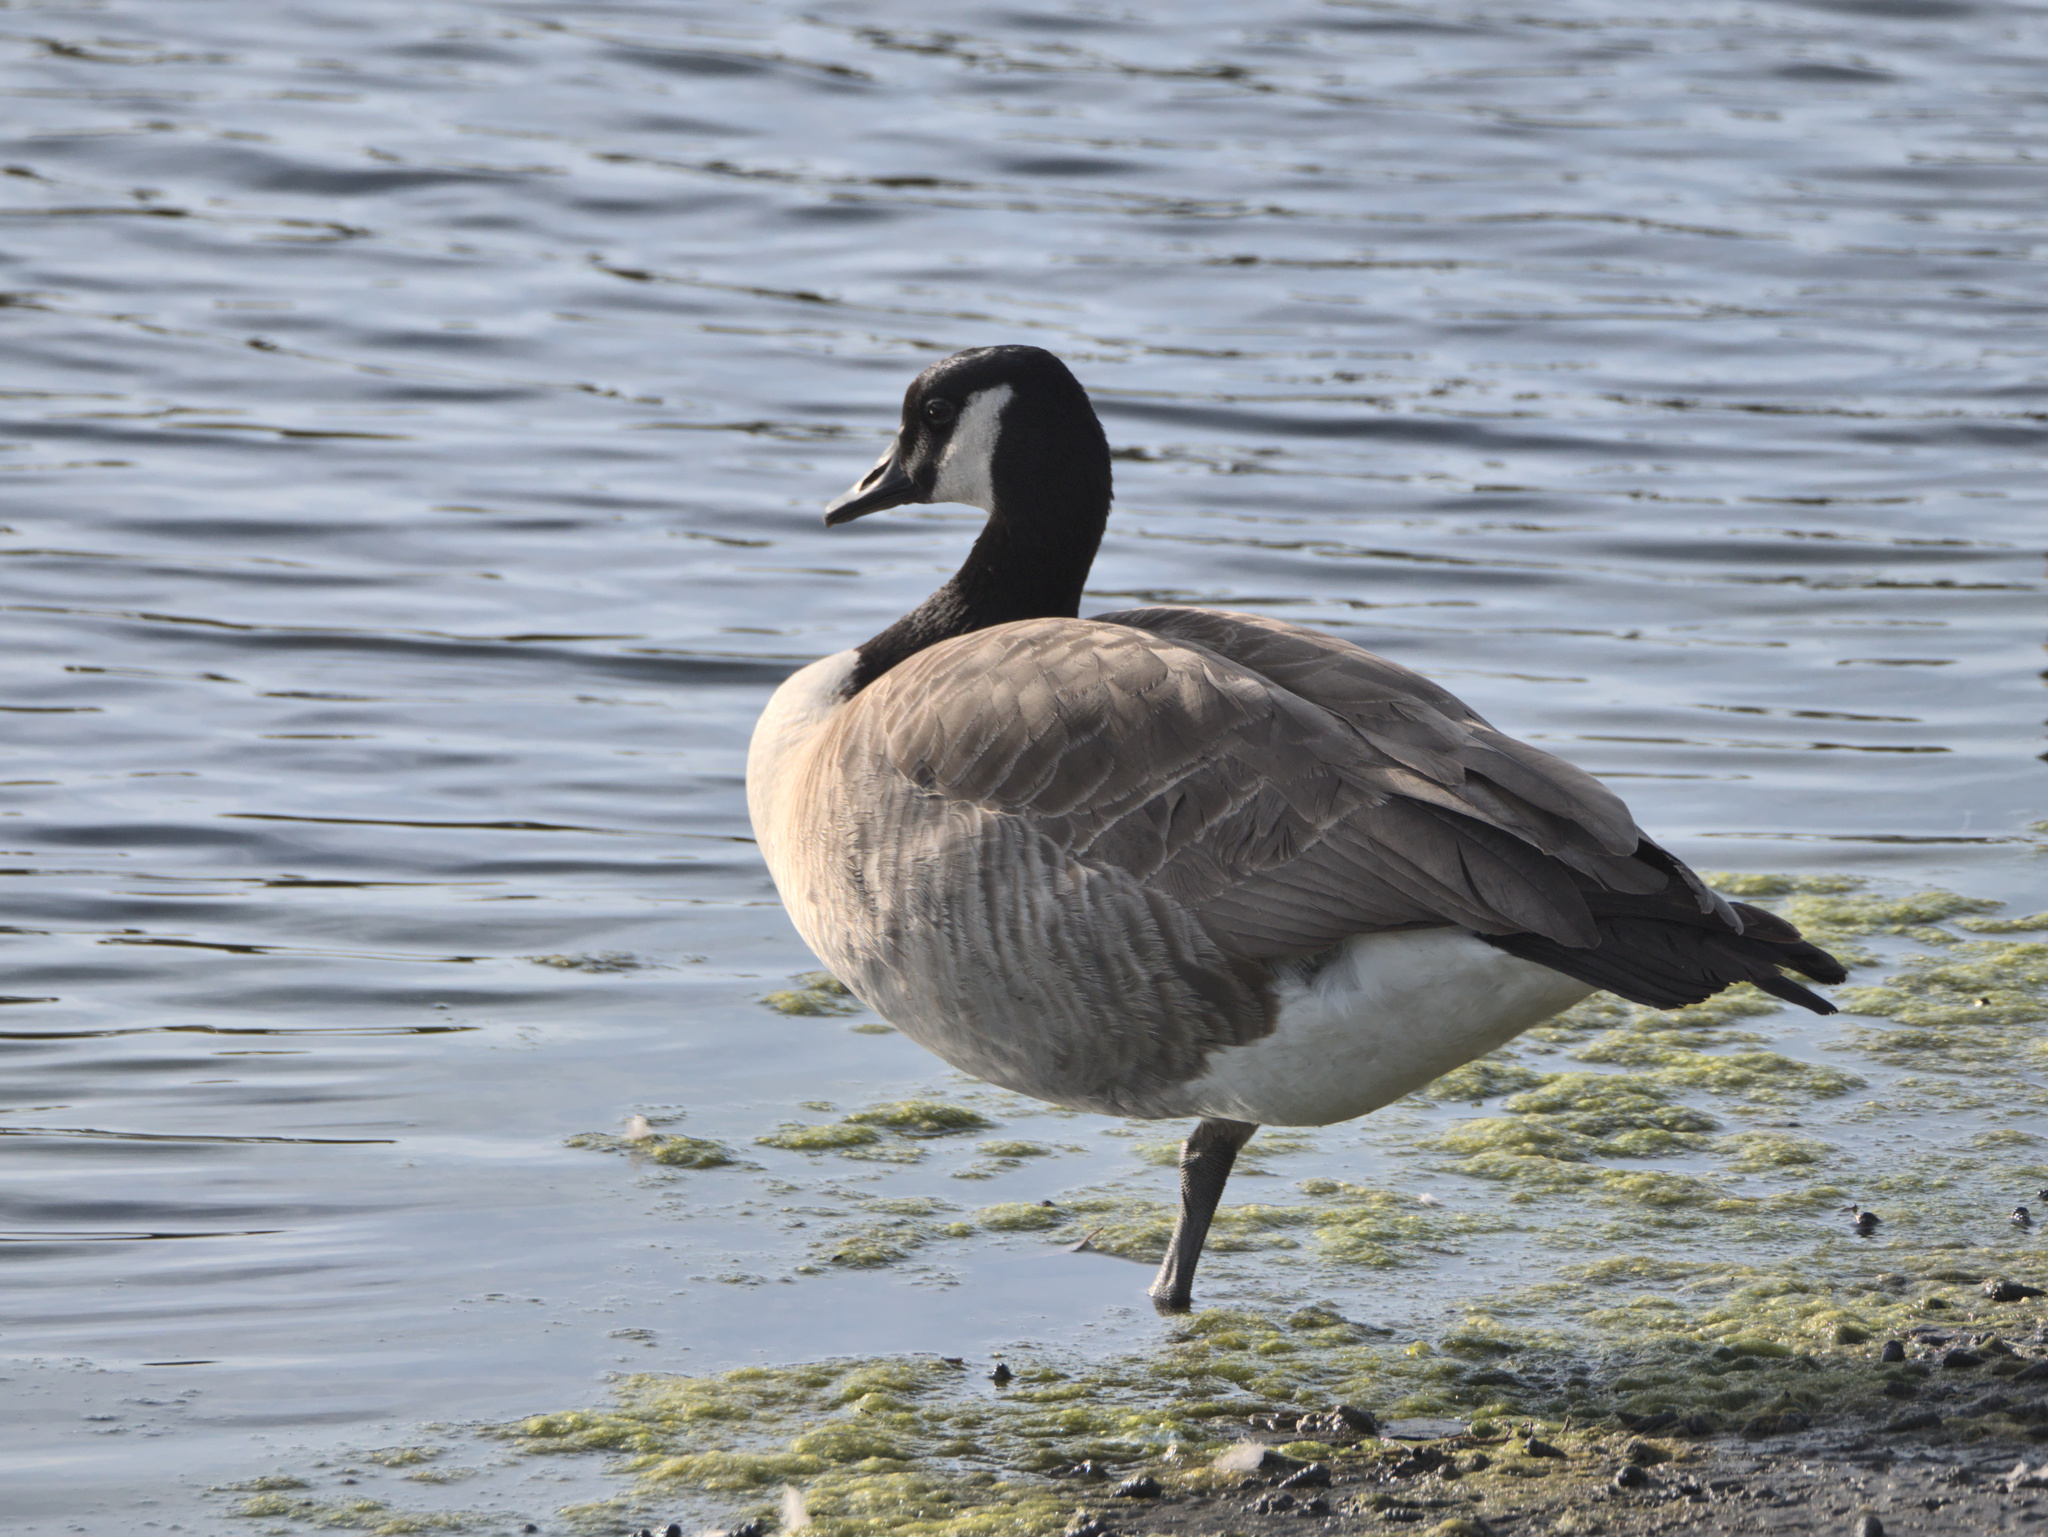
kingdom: Animalia
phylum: Chordata
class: Aves
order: Anseriformes
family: Anatidae
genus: Branta
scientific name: Branta canadensis
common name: Canada goose
